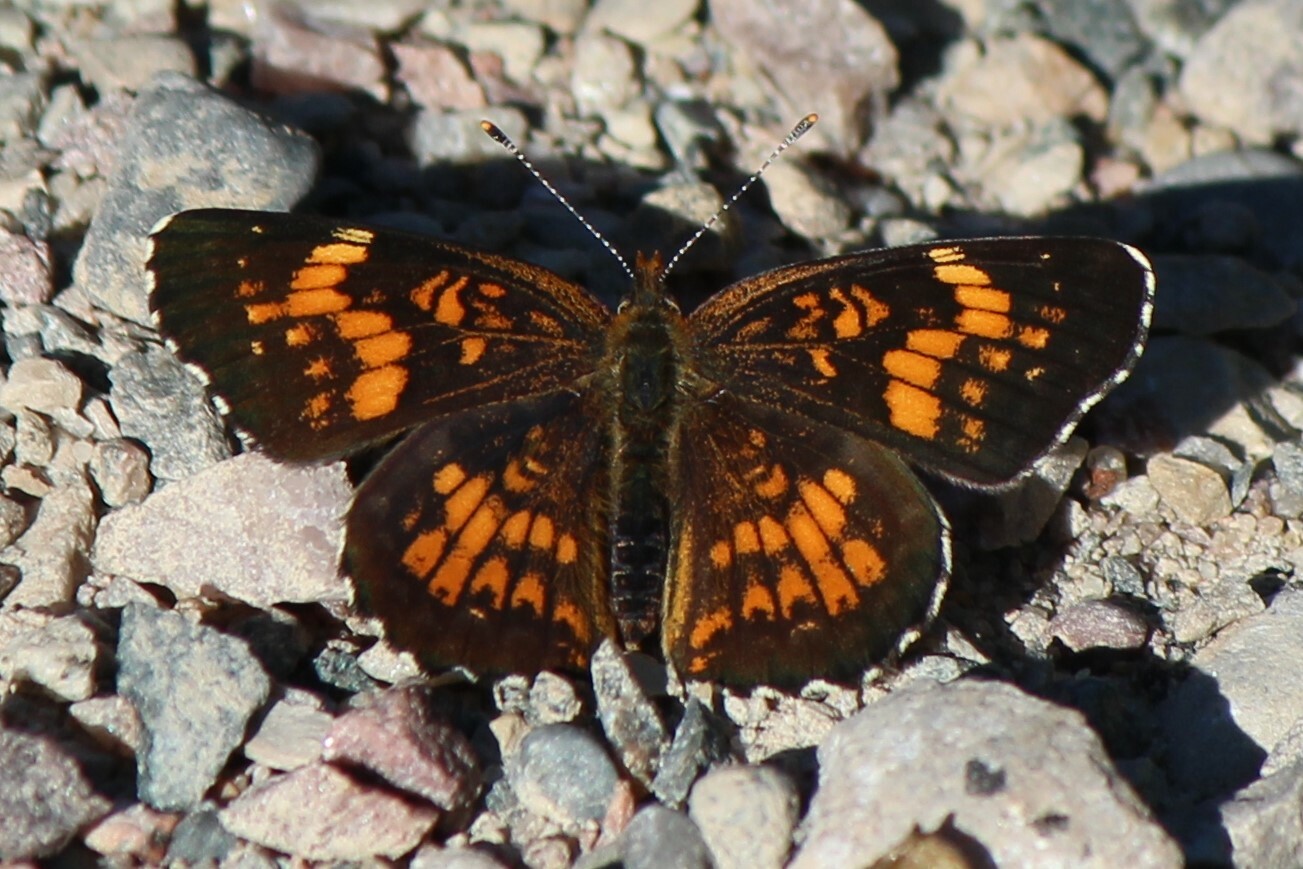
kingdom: Animalia
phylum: Arthropoda
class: Insecta
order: Lepidoptera
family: Nymphalidae
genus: Chlosyne
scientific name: Chlosyne harrisii
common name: Harris's checkerspot
